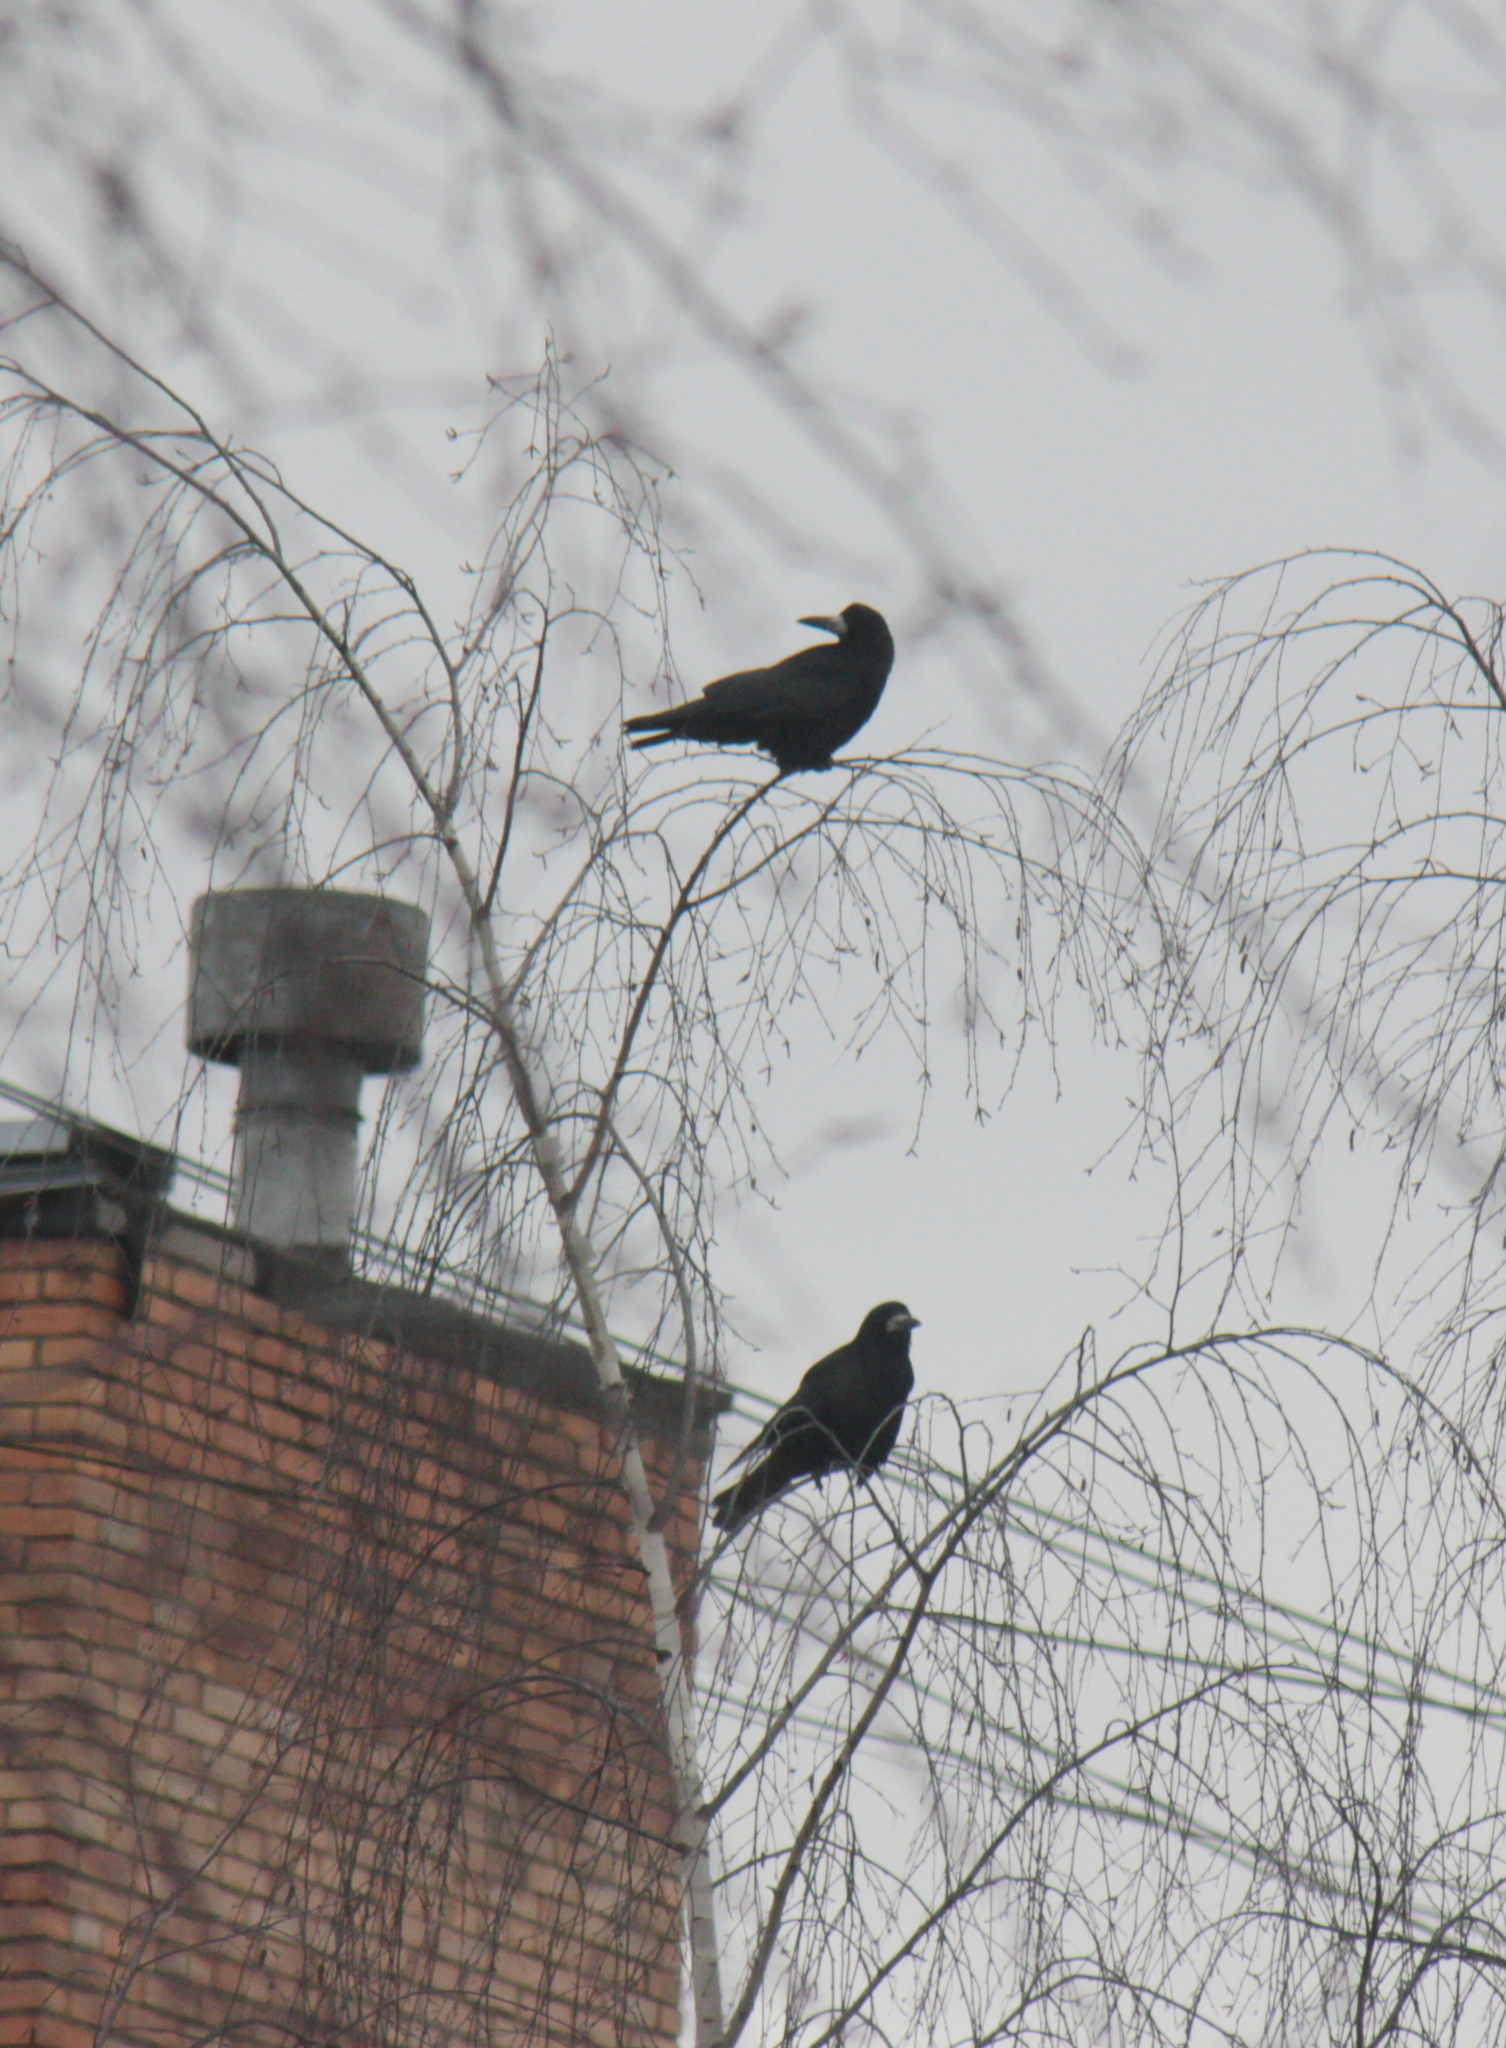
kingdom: Animalia
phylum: Chordata
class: Aves
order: Passeriformes
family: Corvidae
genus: Corvus
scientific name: Corvus frugilegus
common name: Rook
